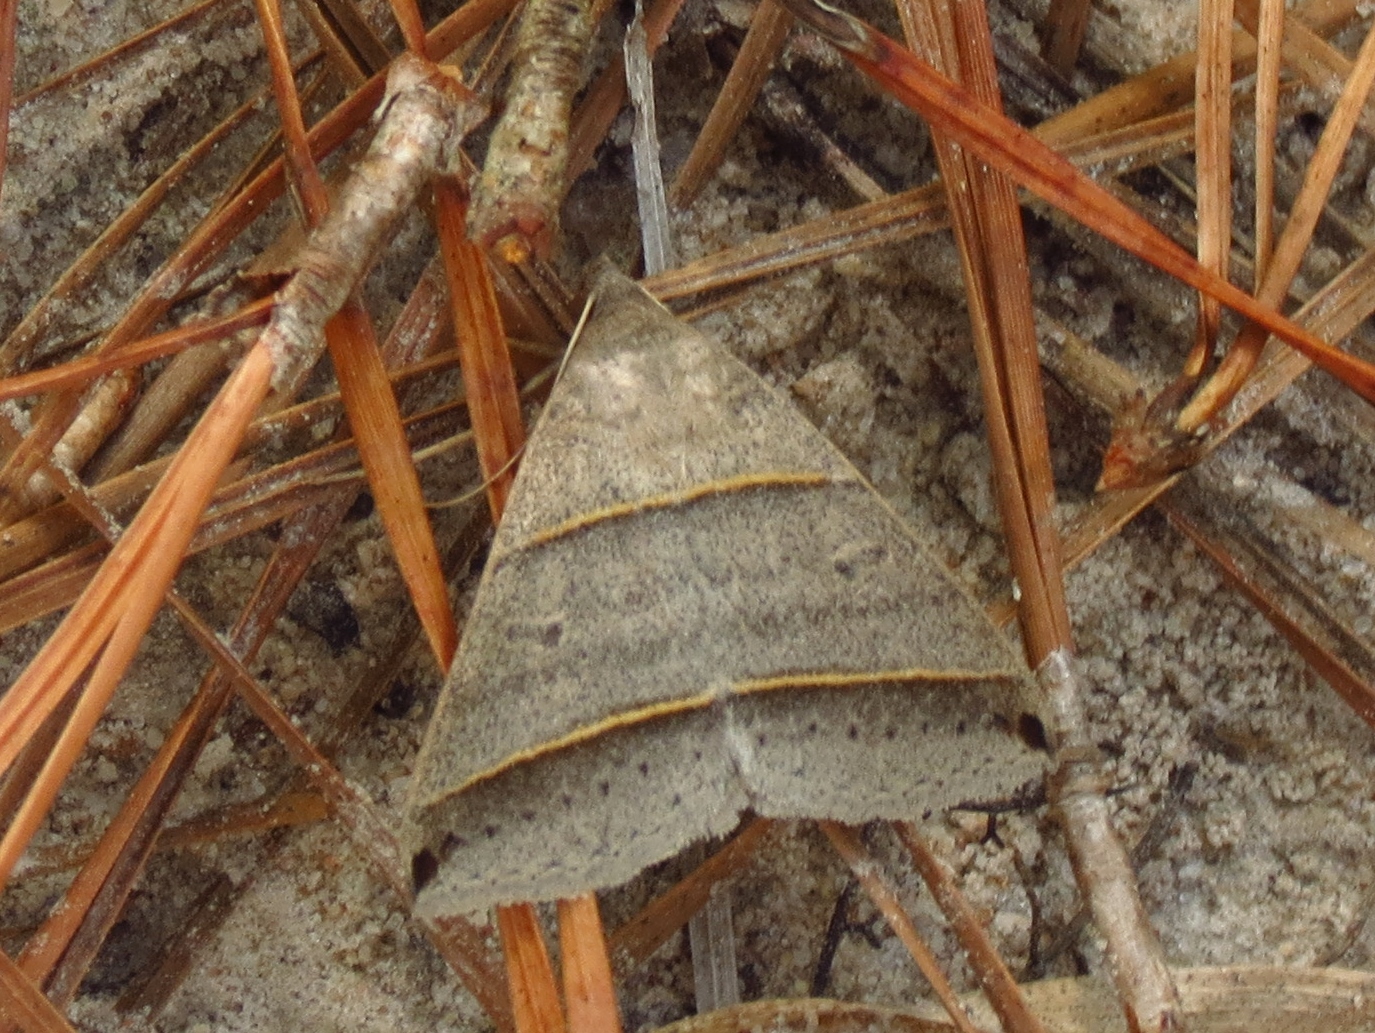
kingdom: Animalia
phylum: Arthropoda
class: Insecta
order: Lepidoptera
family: Erebidae
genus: Ptichodis
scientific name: Ptichodis vinculum
